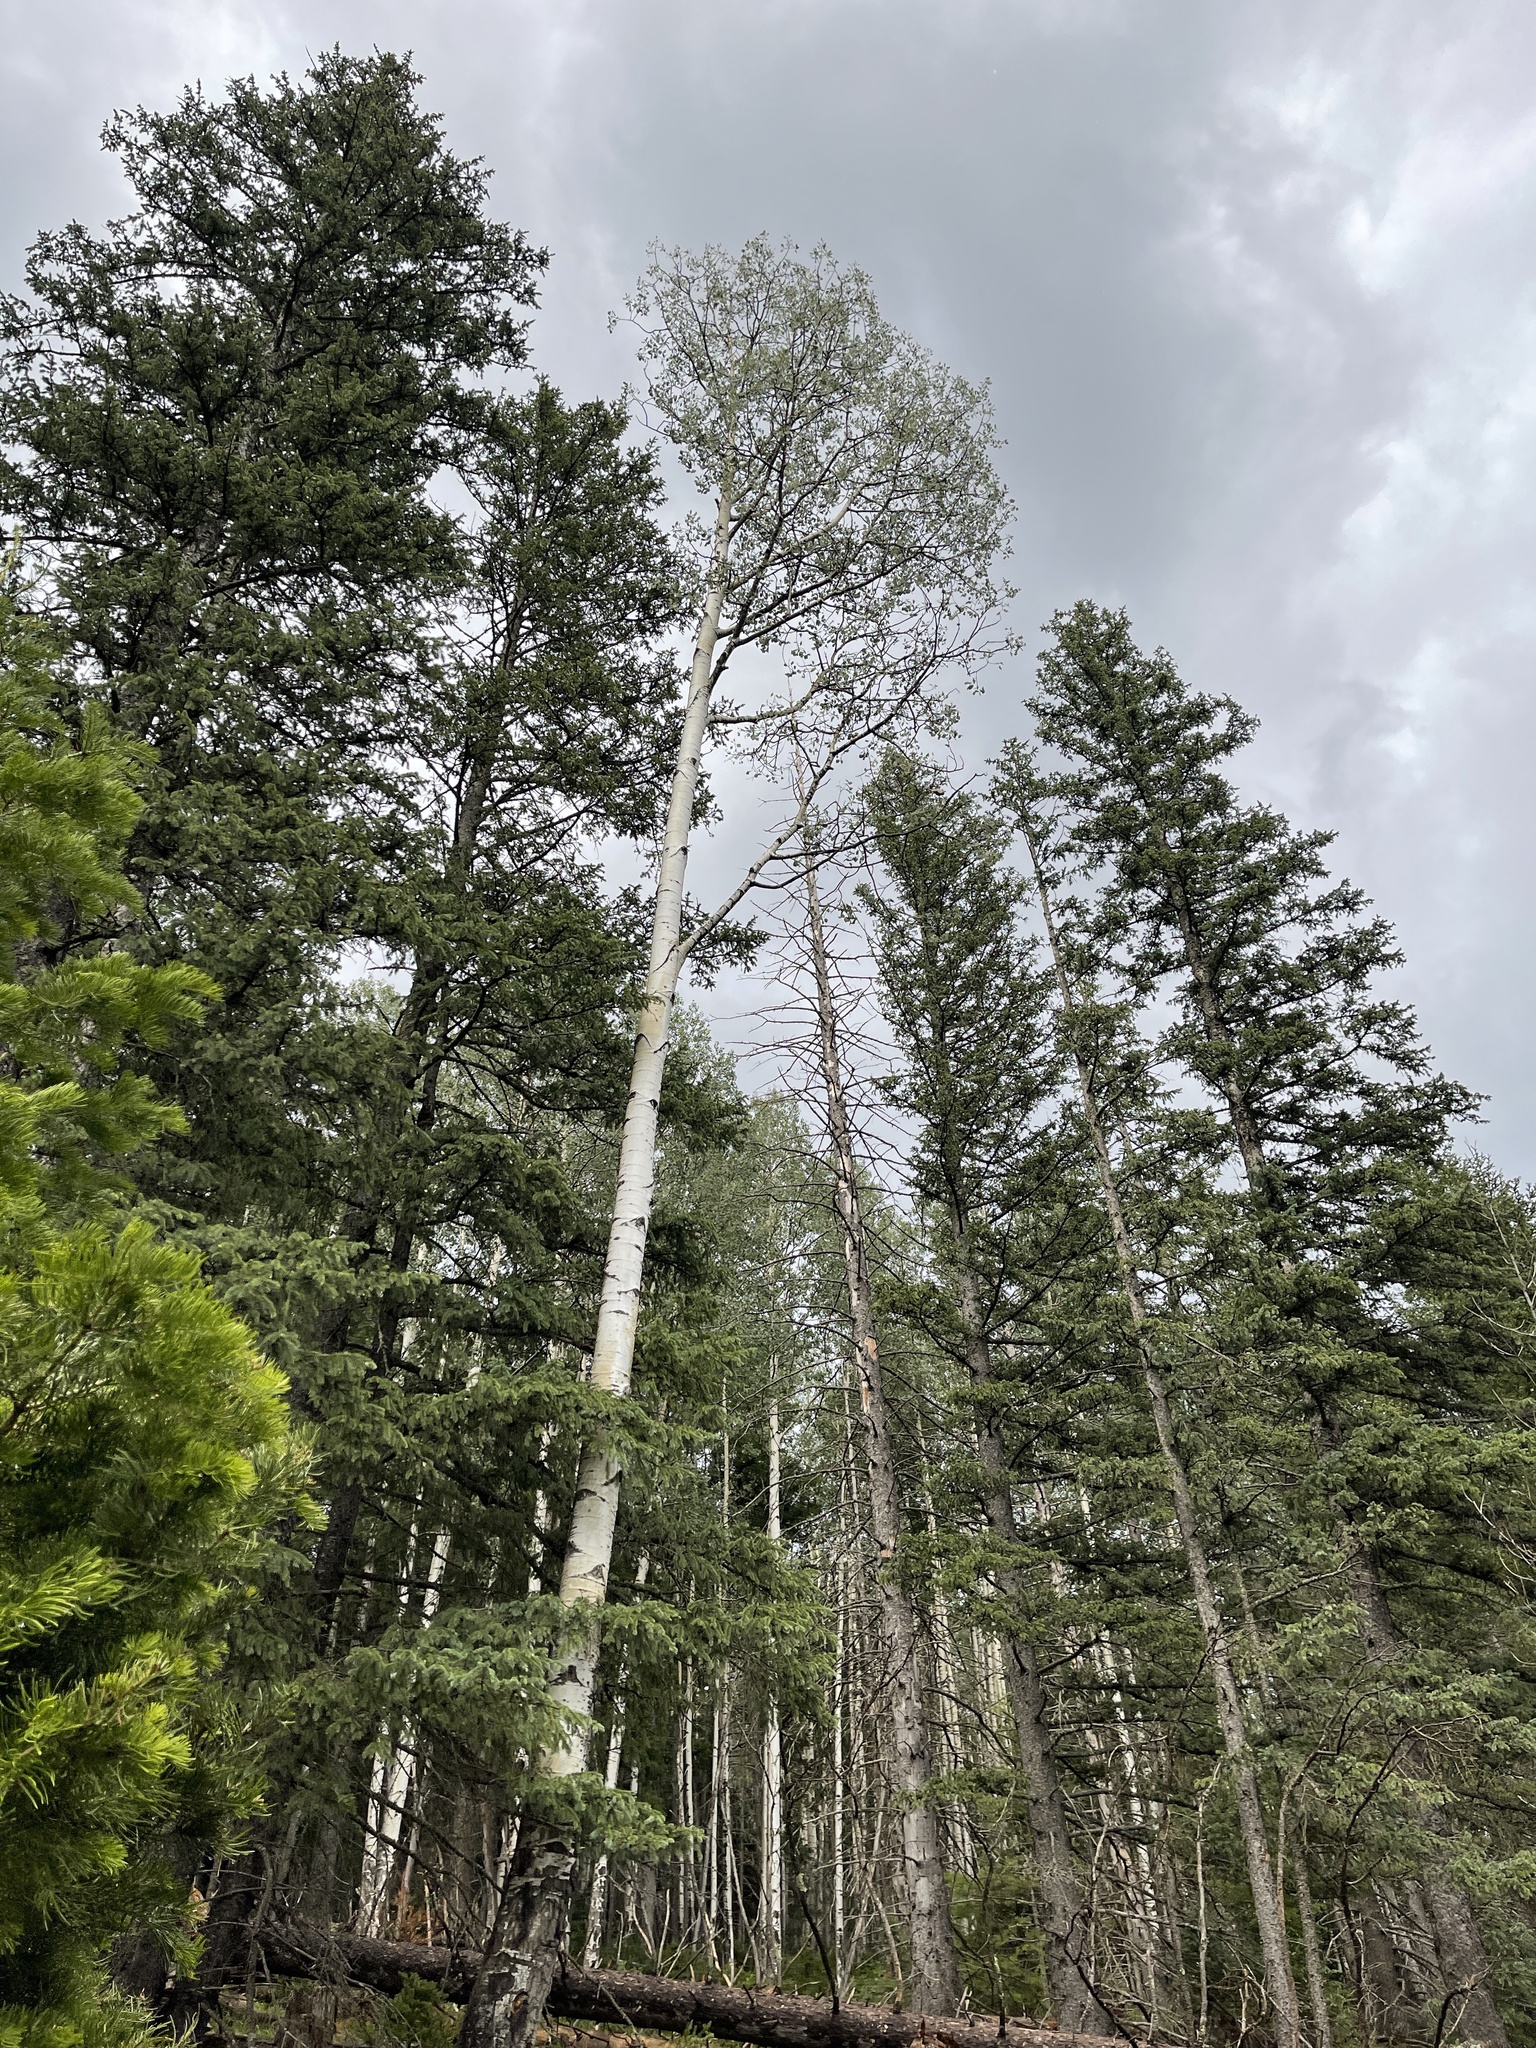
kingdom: Plantae
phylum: Tracheophyta
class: Magnoliopsida
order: Malpighiales
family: Salicaceae
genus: Populus
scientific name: Populus tremuloides
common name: Quaking aspen
